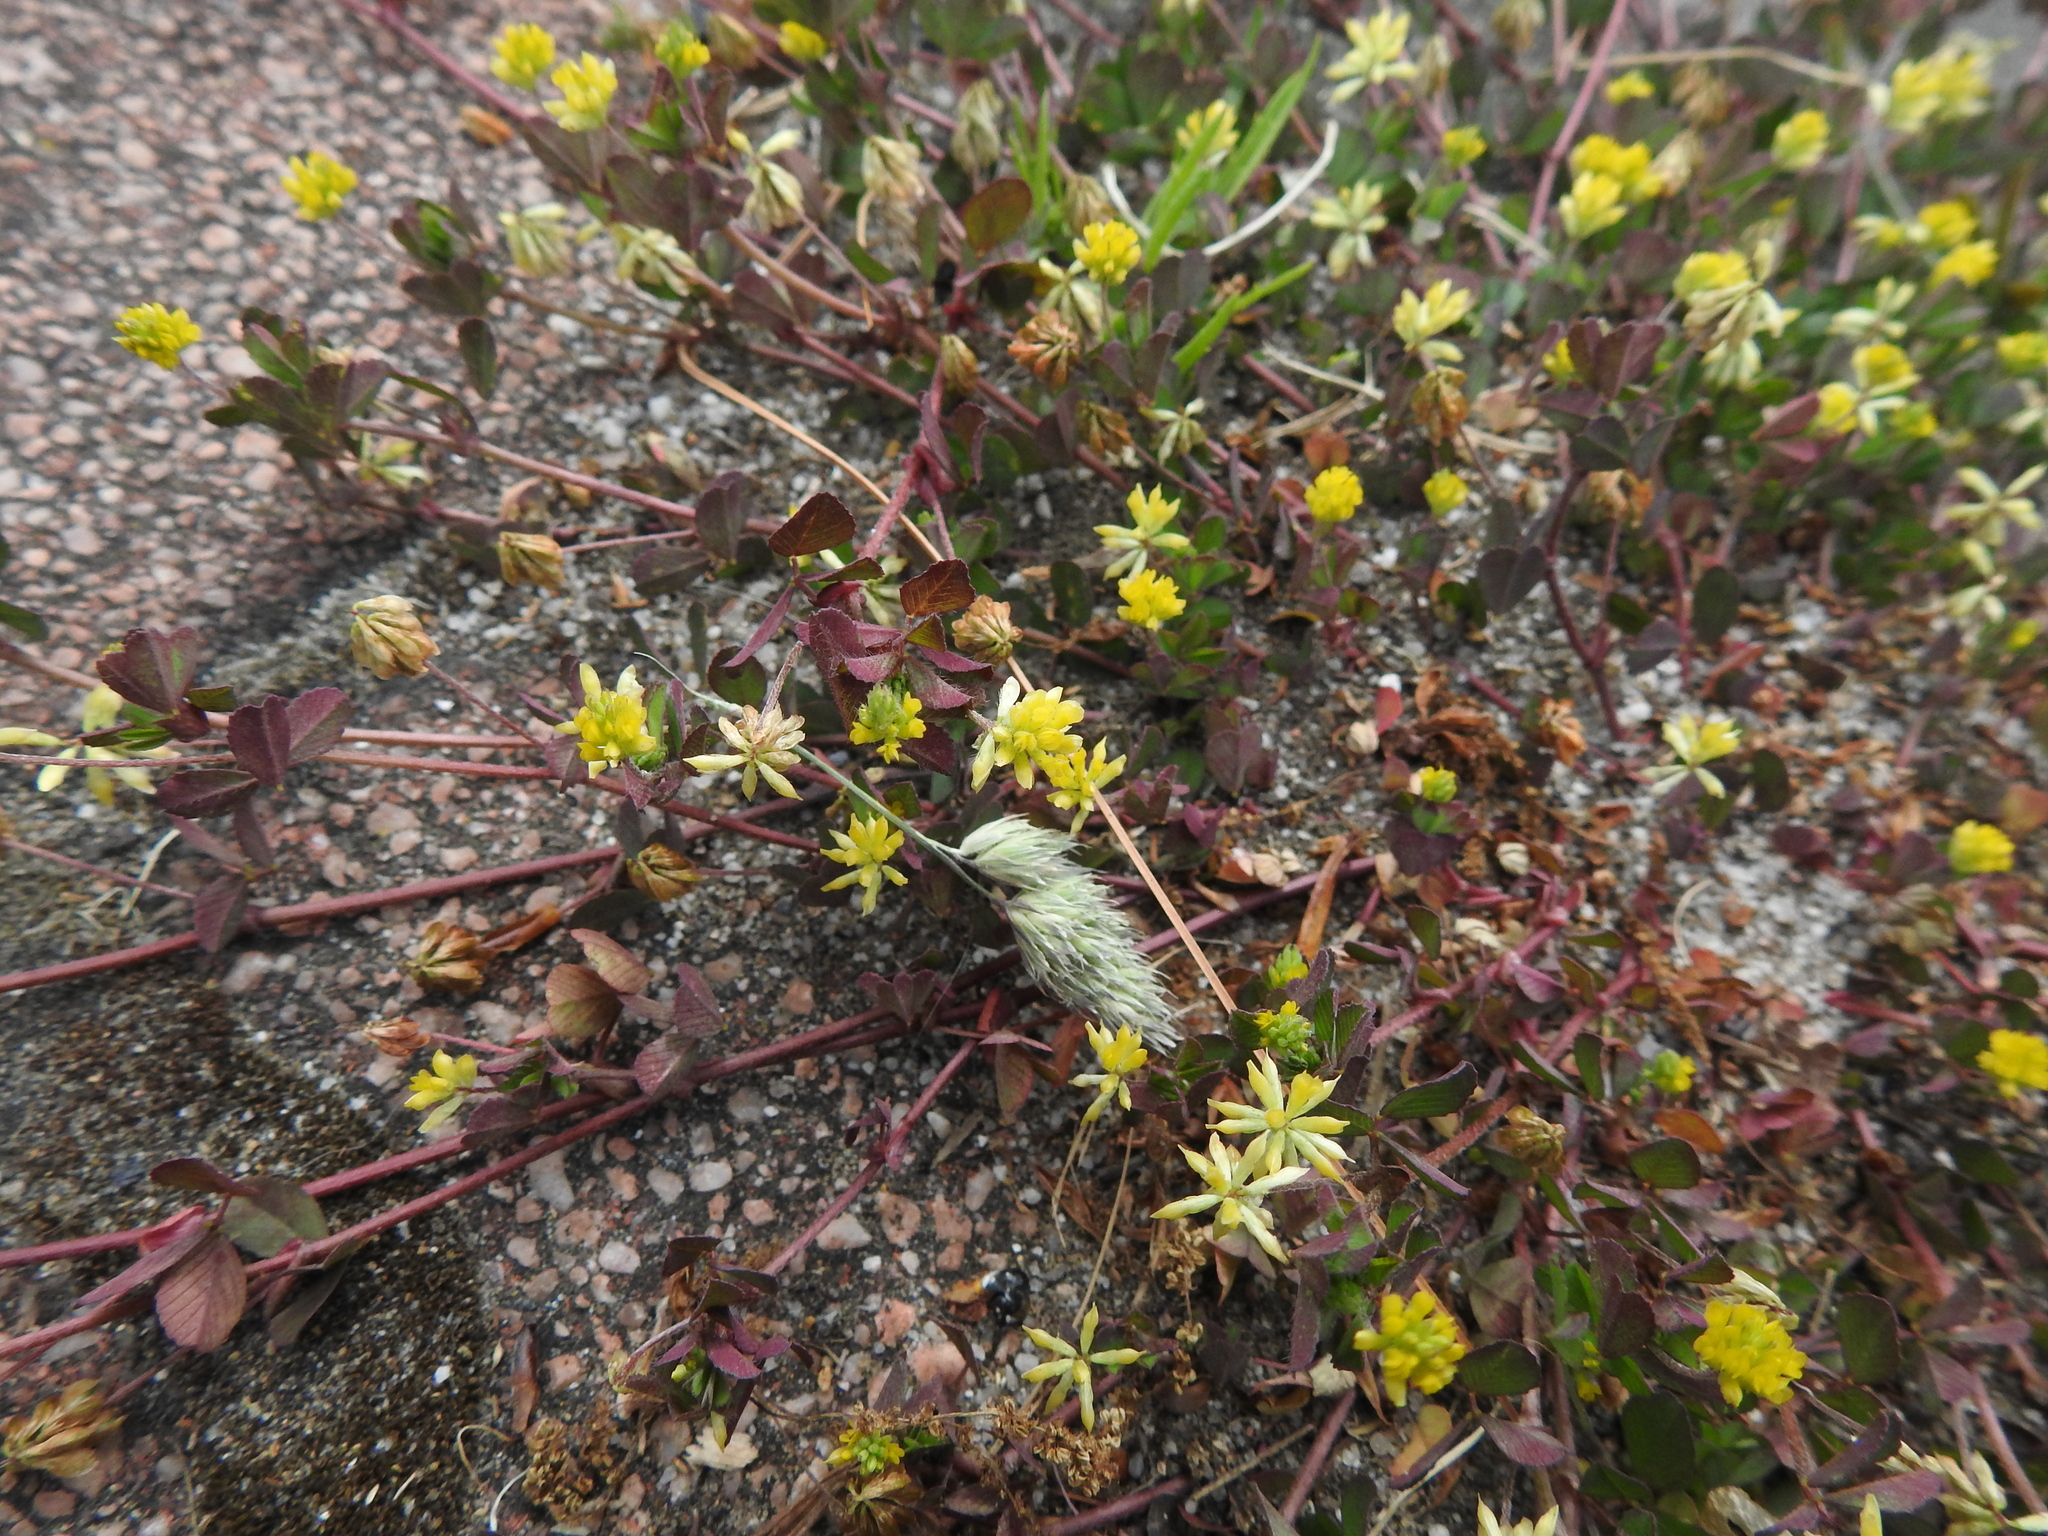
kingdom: Plantae
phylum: Tracheophyta
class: Magnoliopsida
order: Fabales
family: Fabaceae
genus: Trifolium
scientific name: Trifolium dubium
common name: Suckling clover
